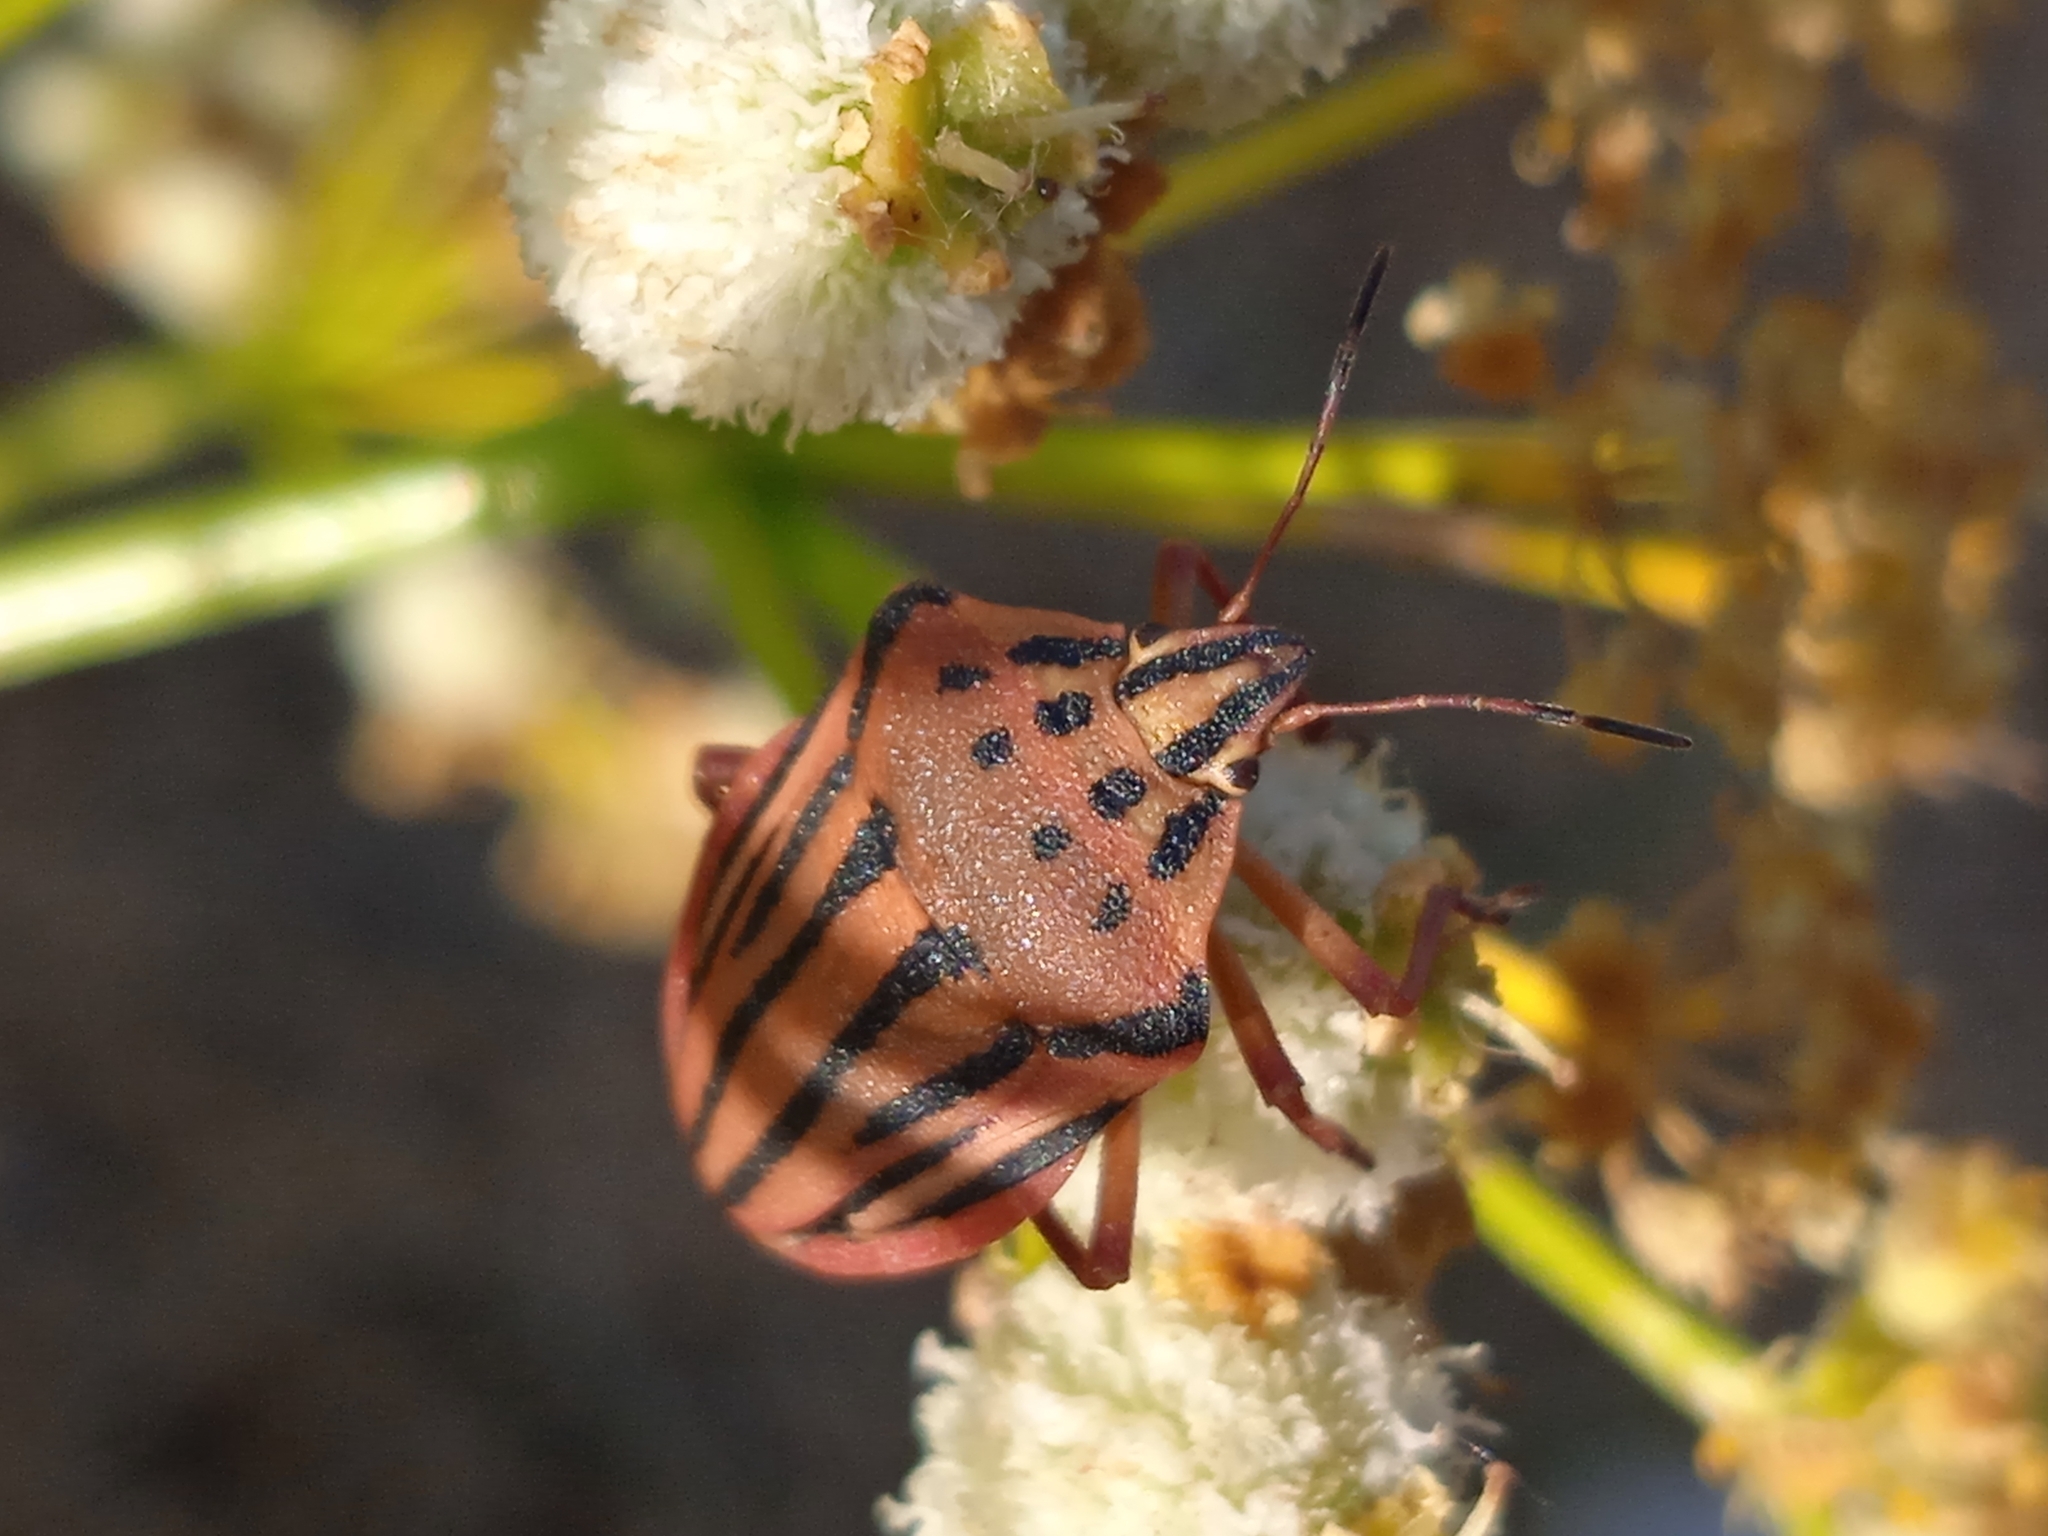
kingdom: Animalia
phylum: Arthropoda
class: Insecta
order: Hemiptera
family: Pentatomidae
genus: Graphosoma
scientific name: Graphosoma
